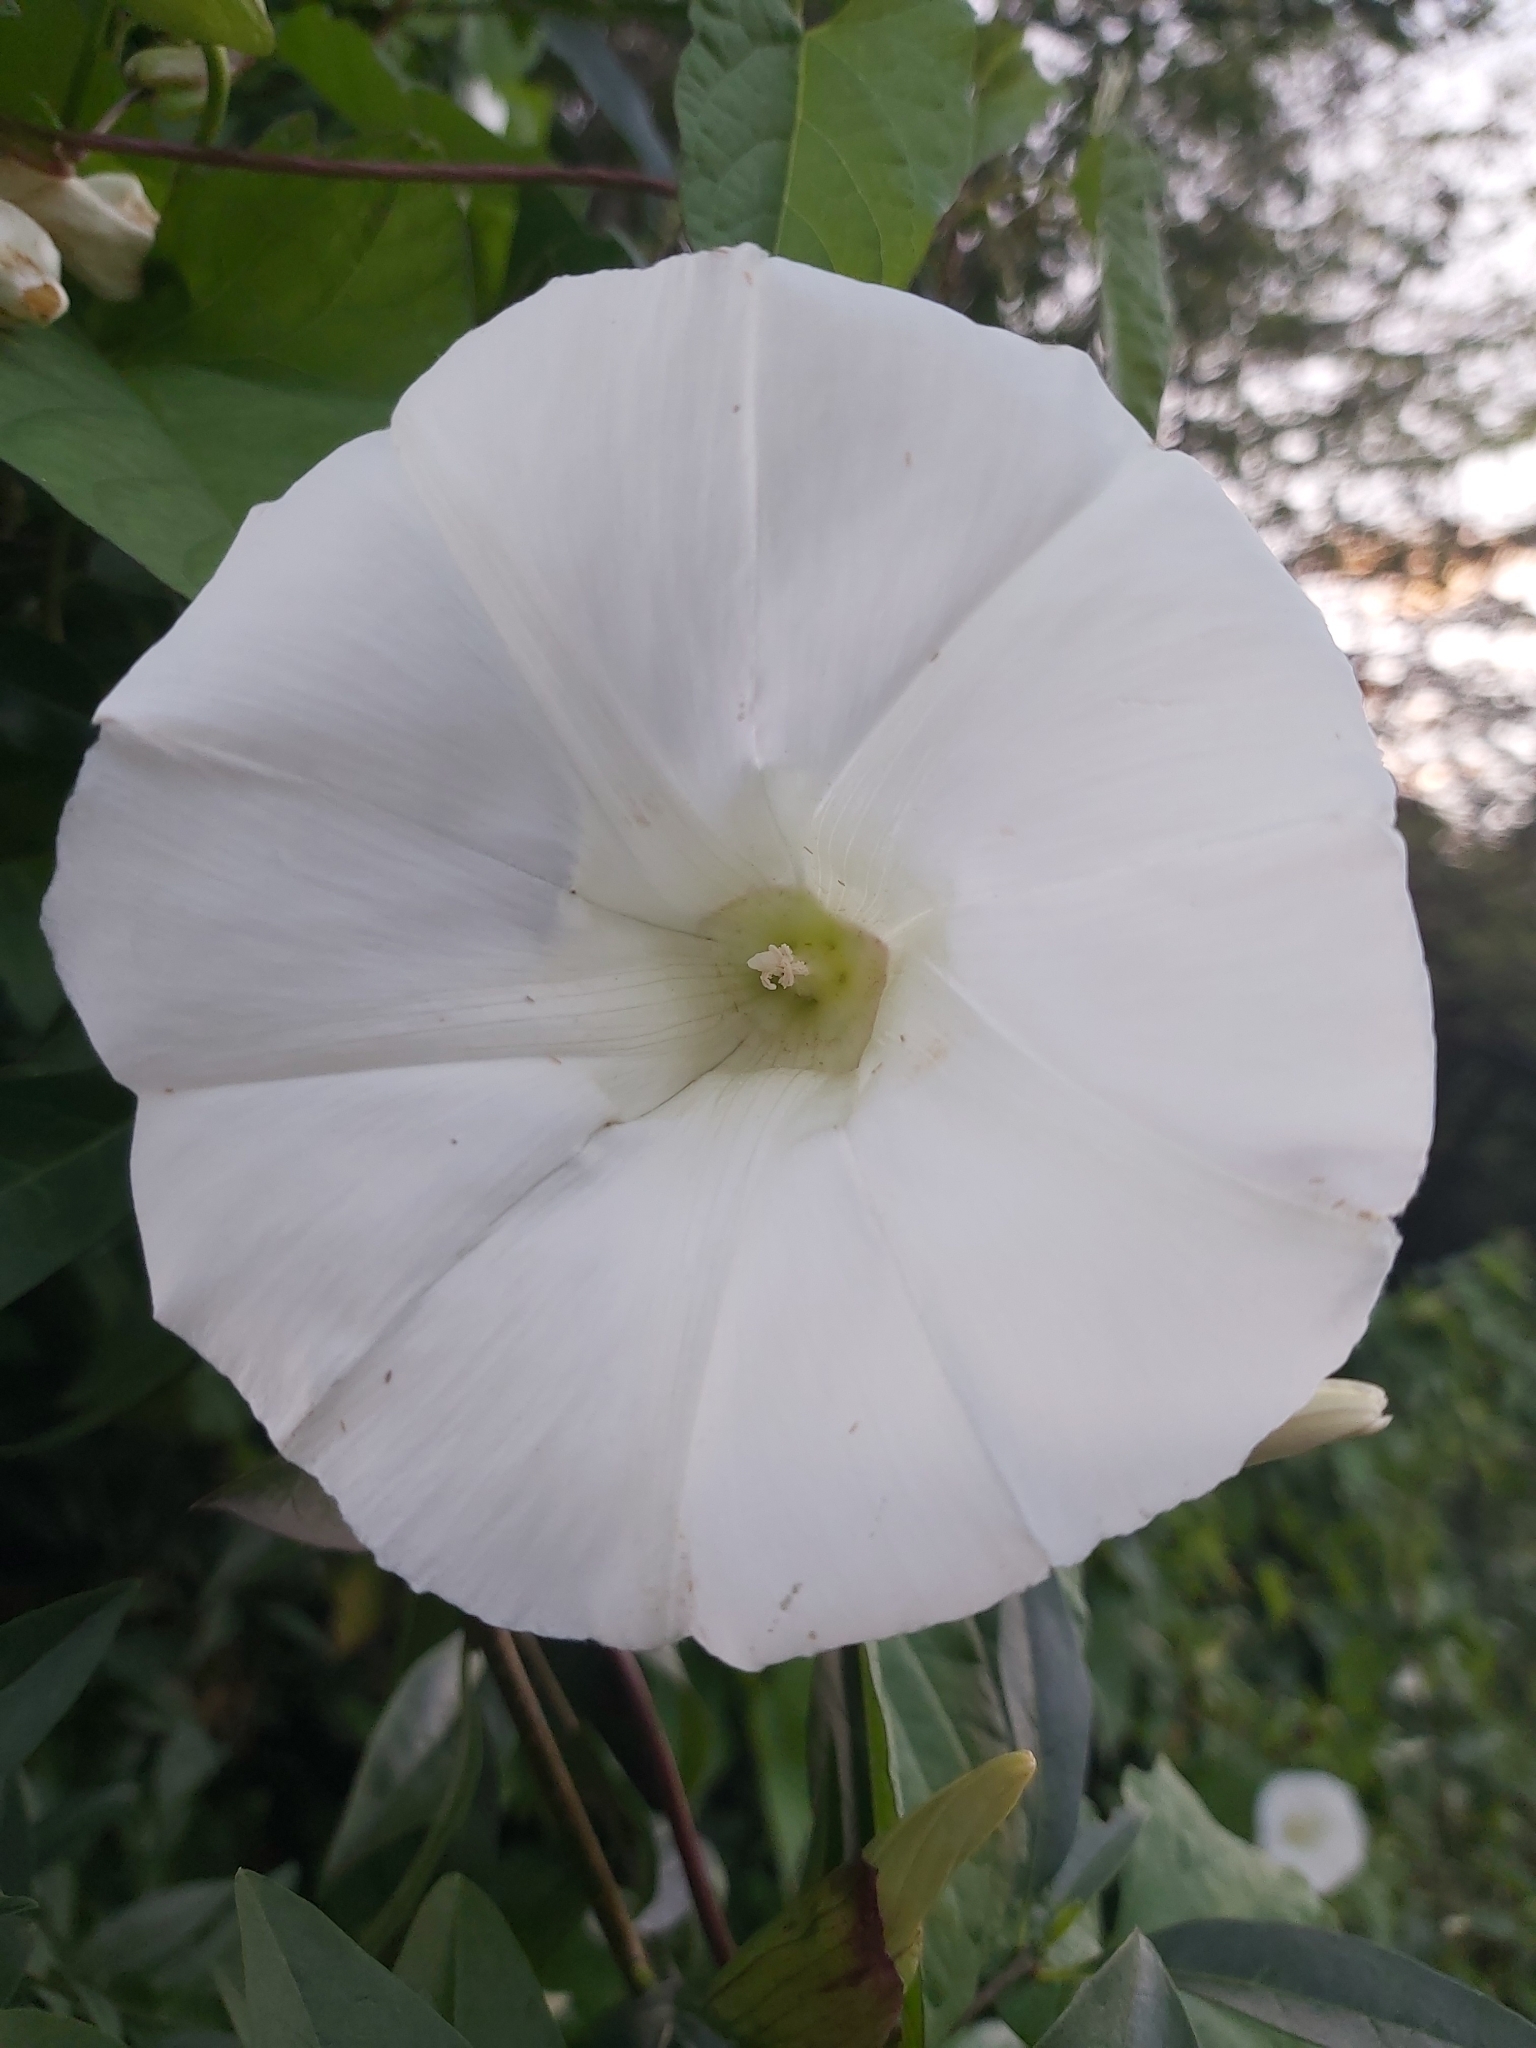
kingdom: Plantae
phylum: Tracheophyta
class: Magnoliopsida
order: Solanales
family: Convolvulaceae
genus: Calystegia
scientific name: Calystegia silvatica
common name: Large bindweed
